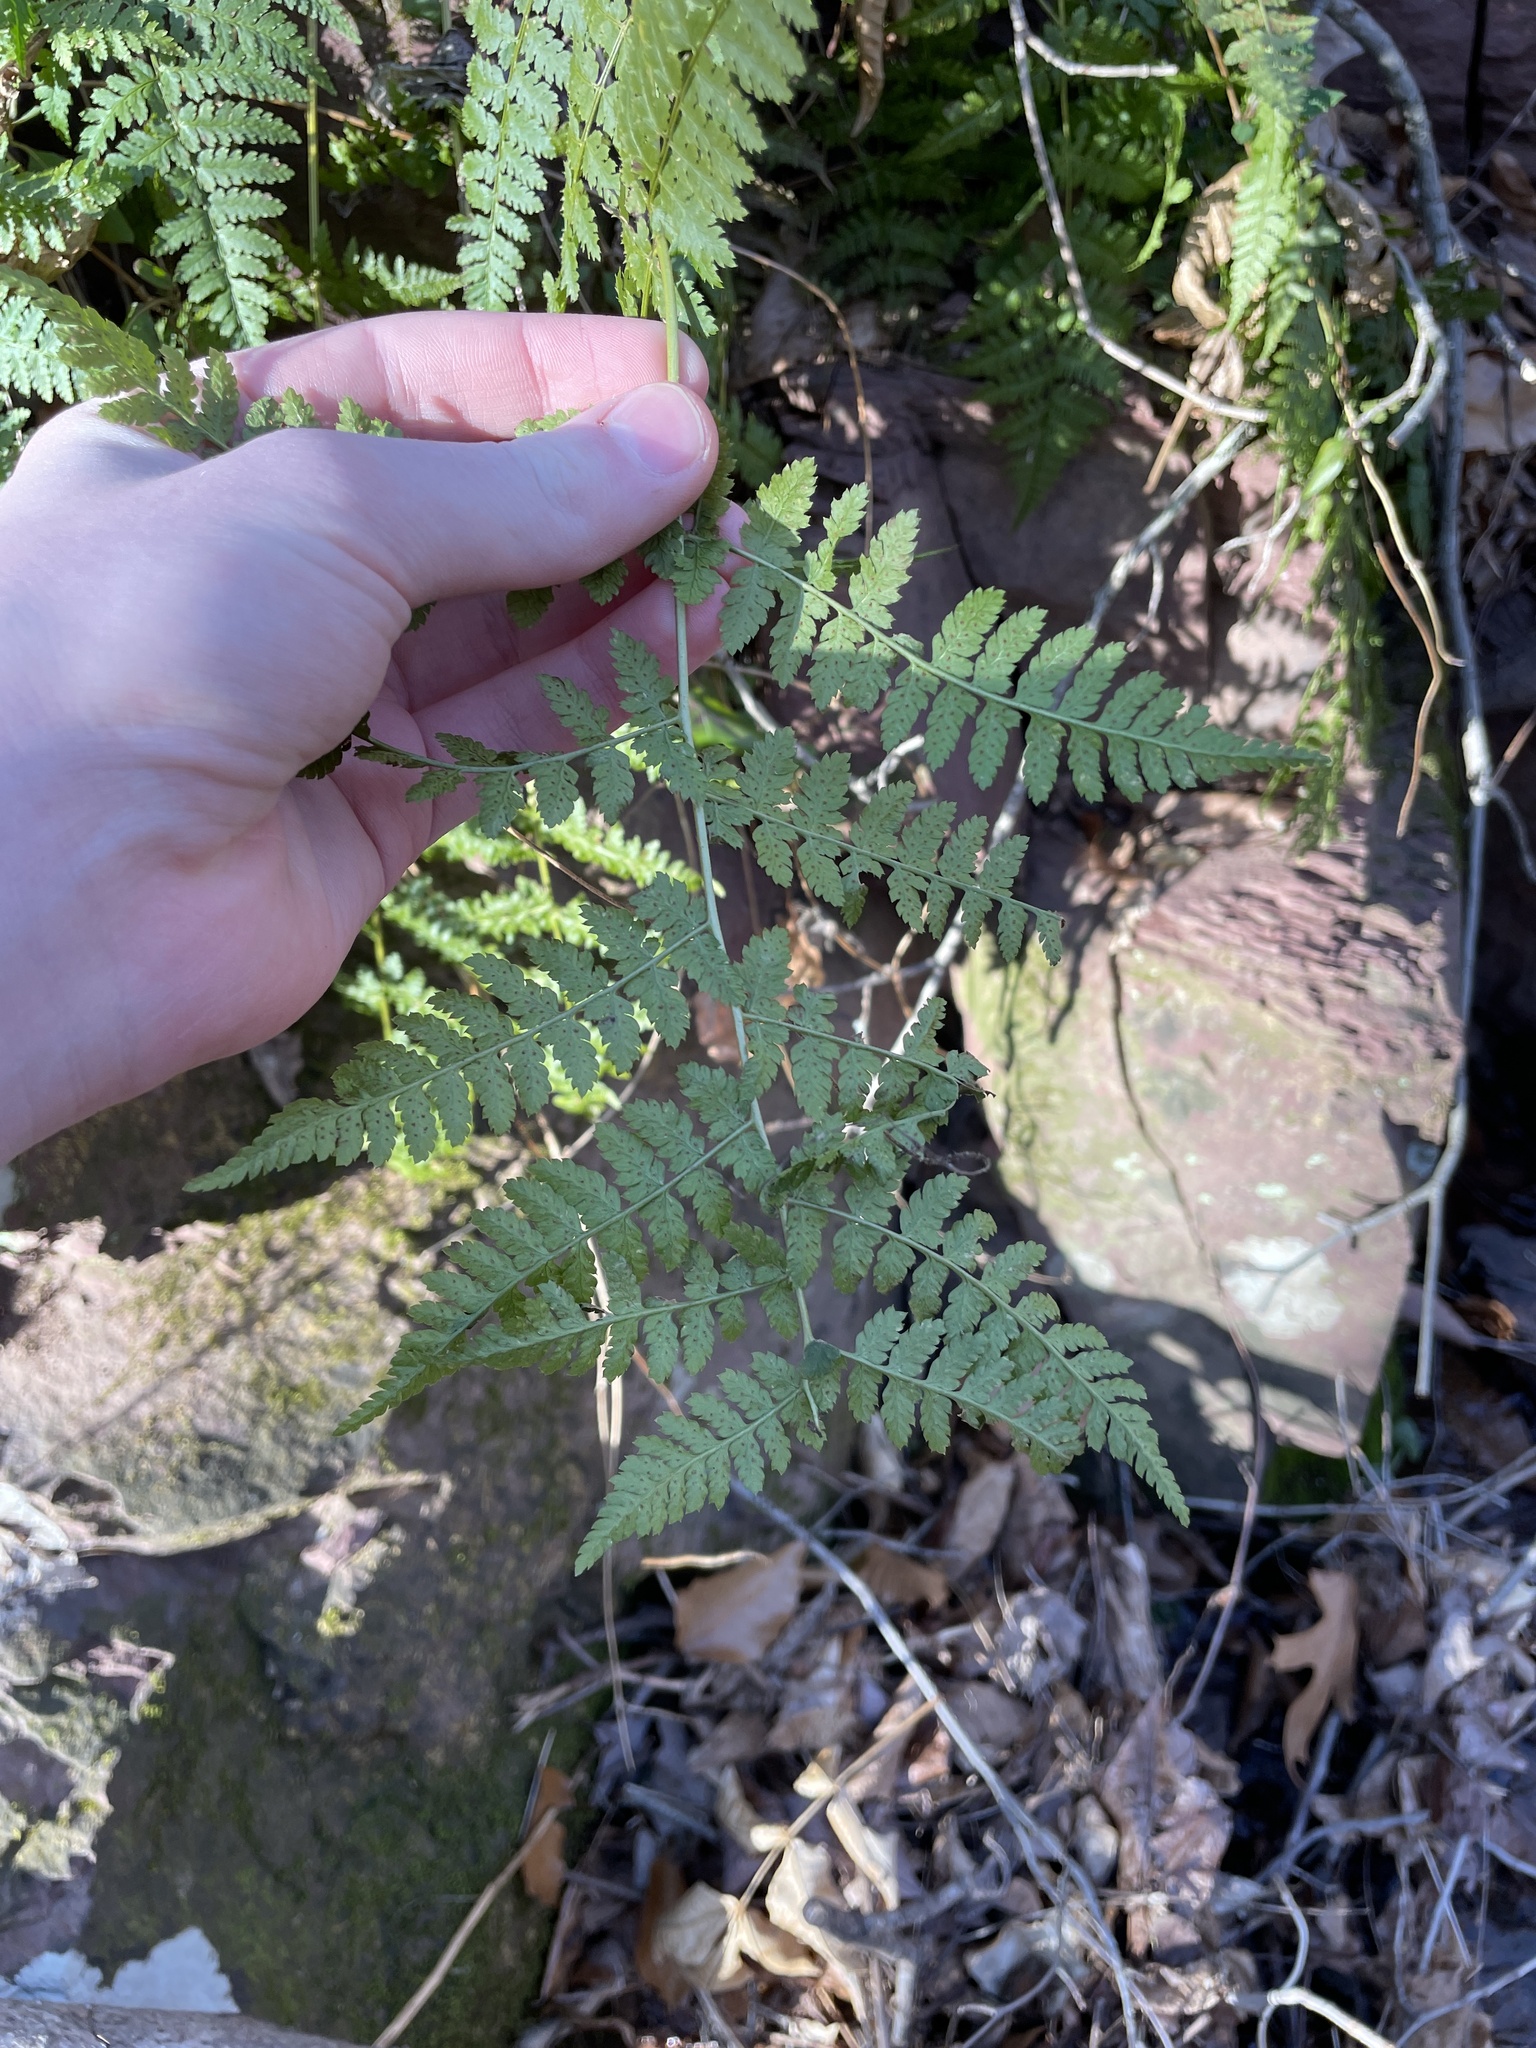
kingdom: Plantae
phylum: Tracheophyta
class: Polypodiopsida
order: Polypodiales
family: Dryopteridaceae
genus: Dryopteris
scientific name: Dryopteris intermedia
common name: Evergreen wood fern
